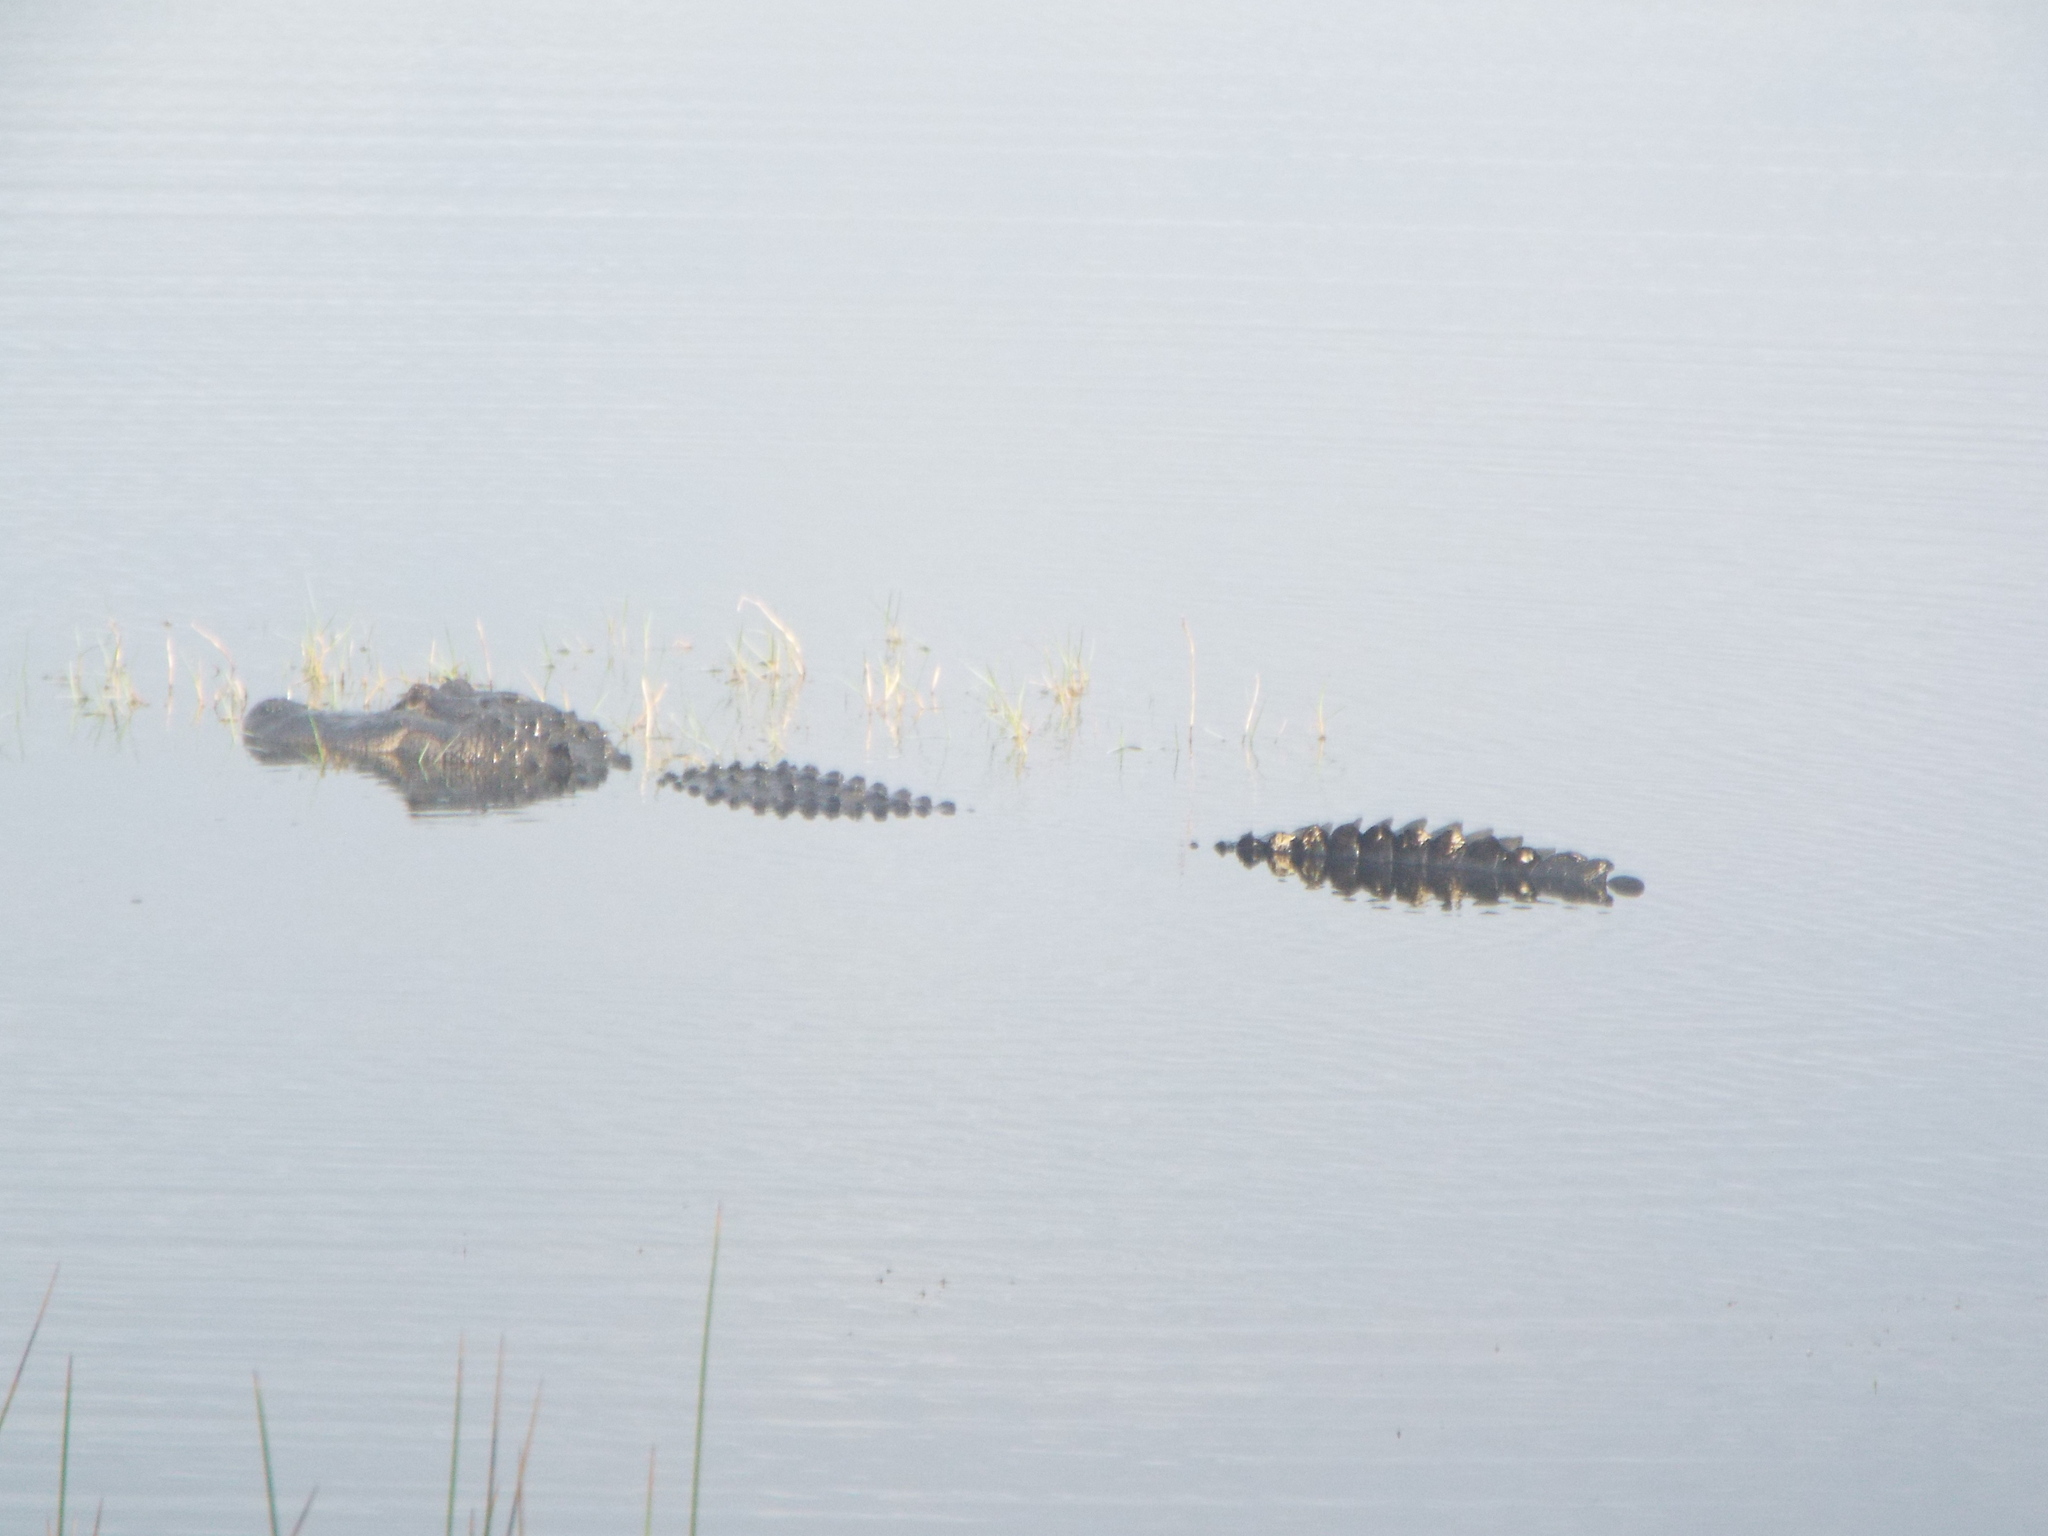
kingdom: Animalia
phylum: Chordata
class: Crocodylia
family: Alligatoridae
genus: Alligator
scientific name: Alligator mississippiensis
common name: American alligator
